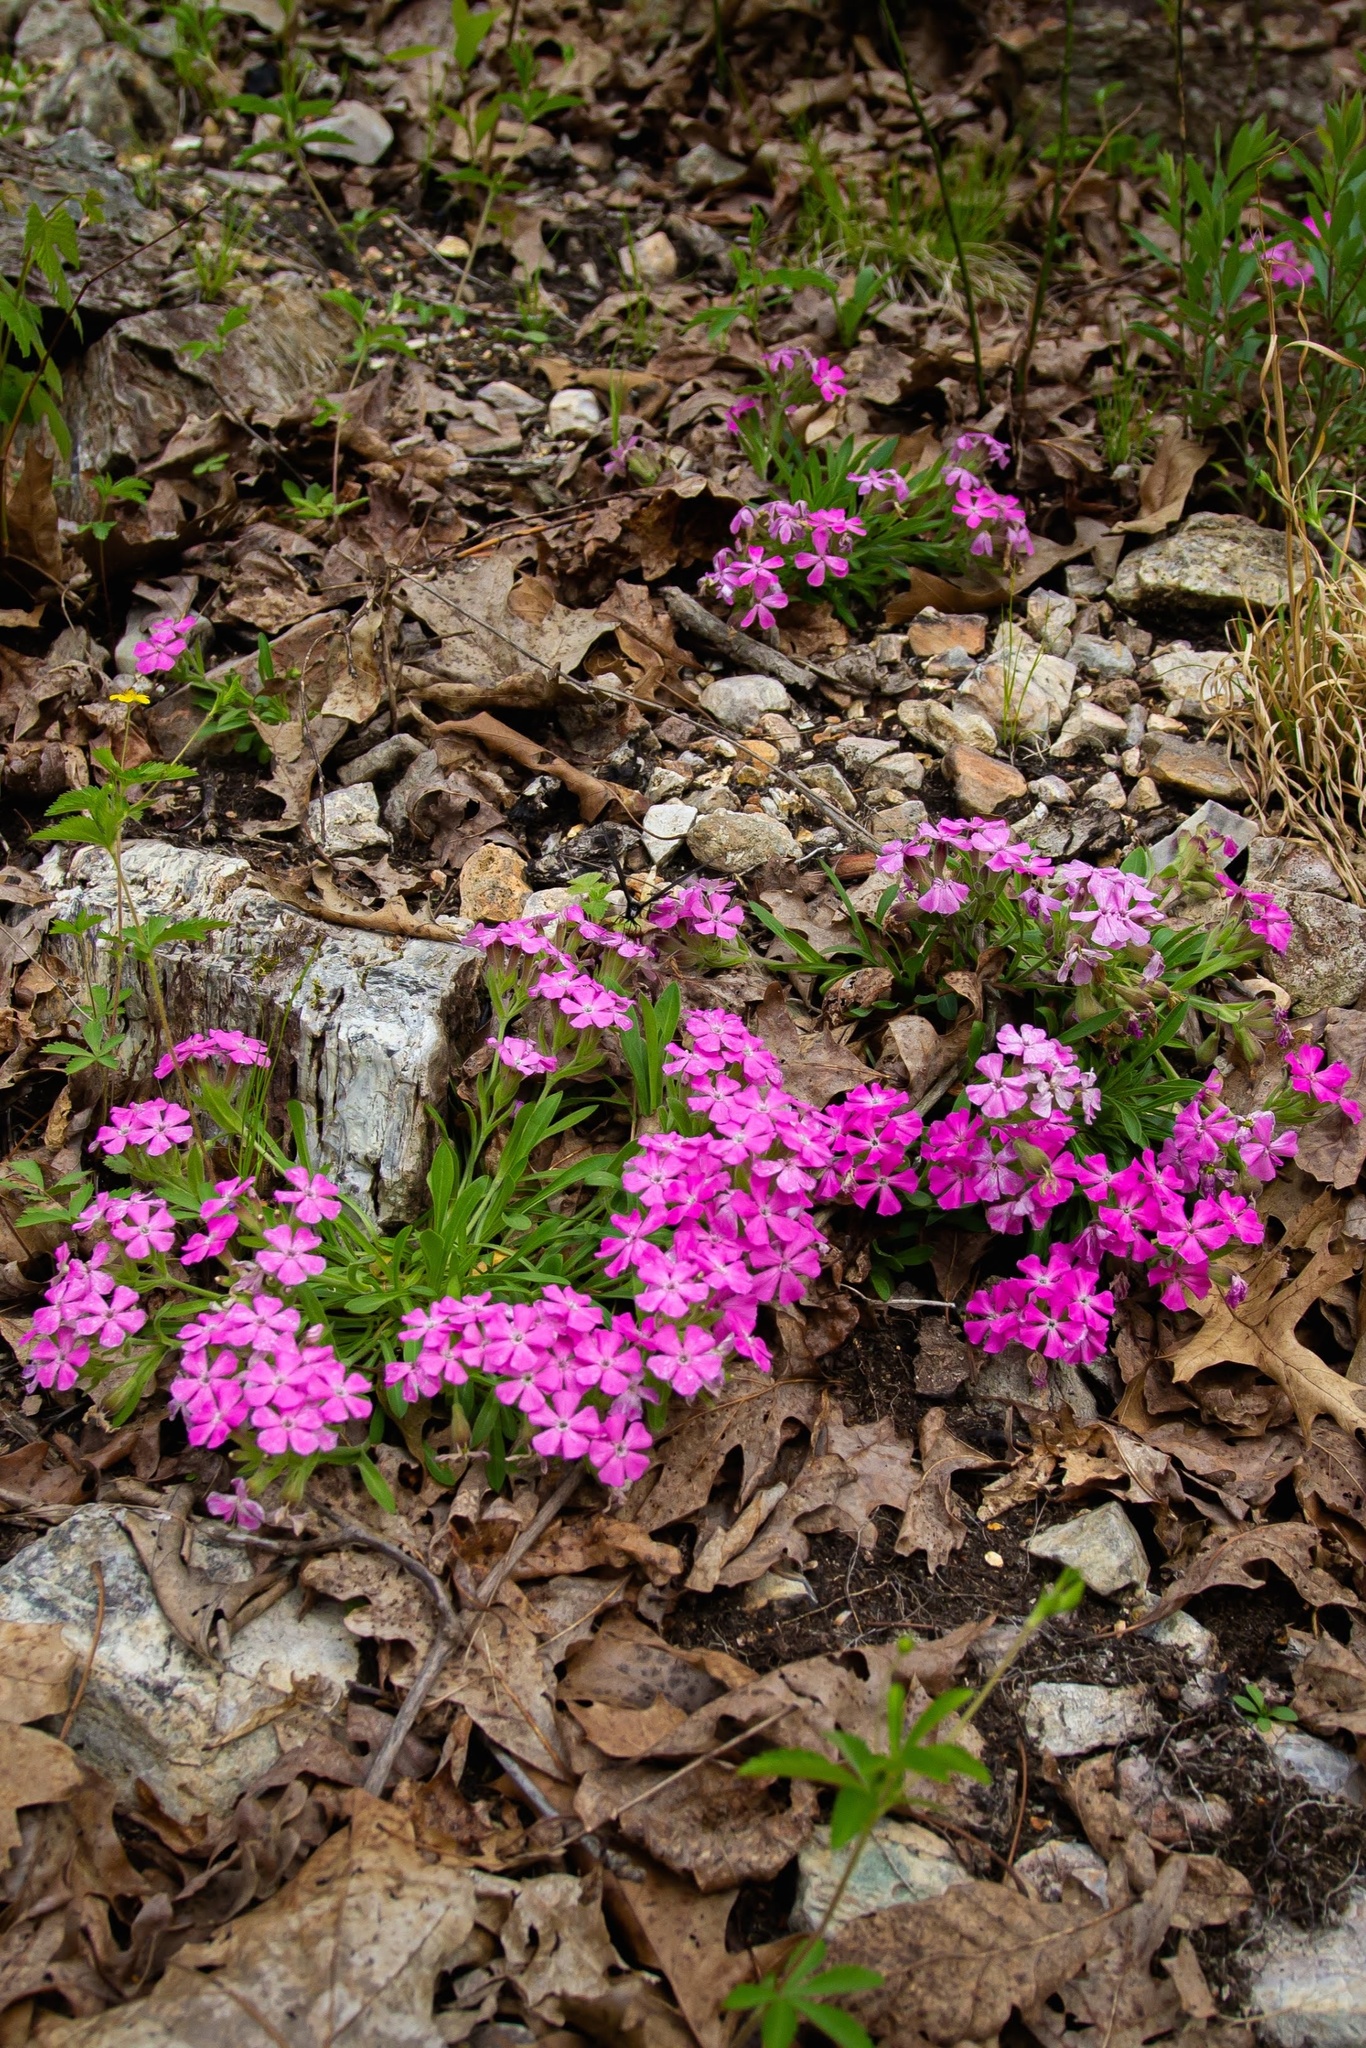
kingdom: Plantae
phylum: Tracheophyta
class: Magnoliopsida
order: Caryophyllales
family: Caryophyllaceae
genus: Silene
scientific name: Silene caroliniana
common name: Sticky catchfly
